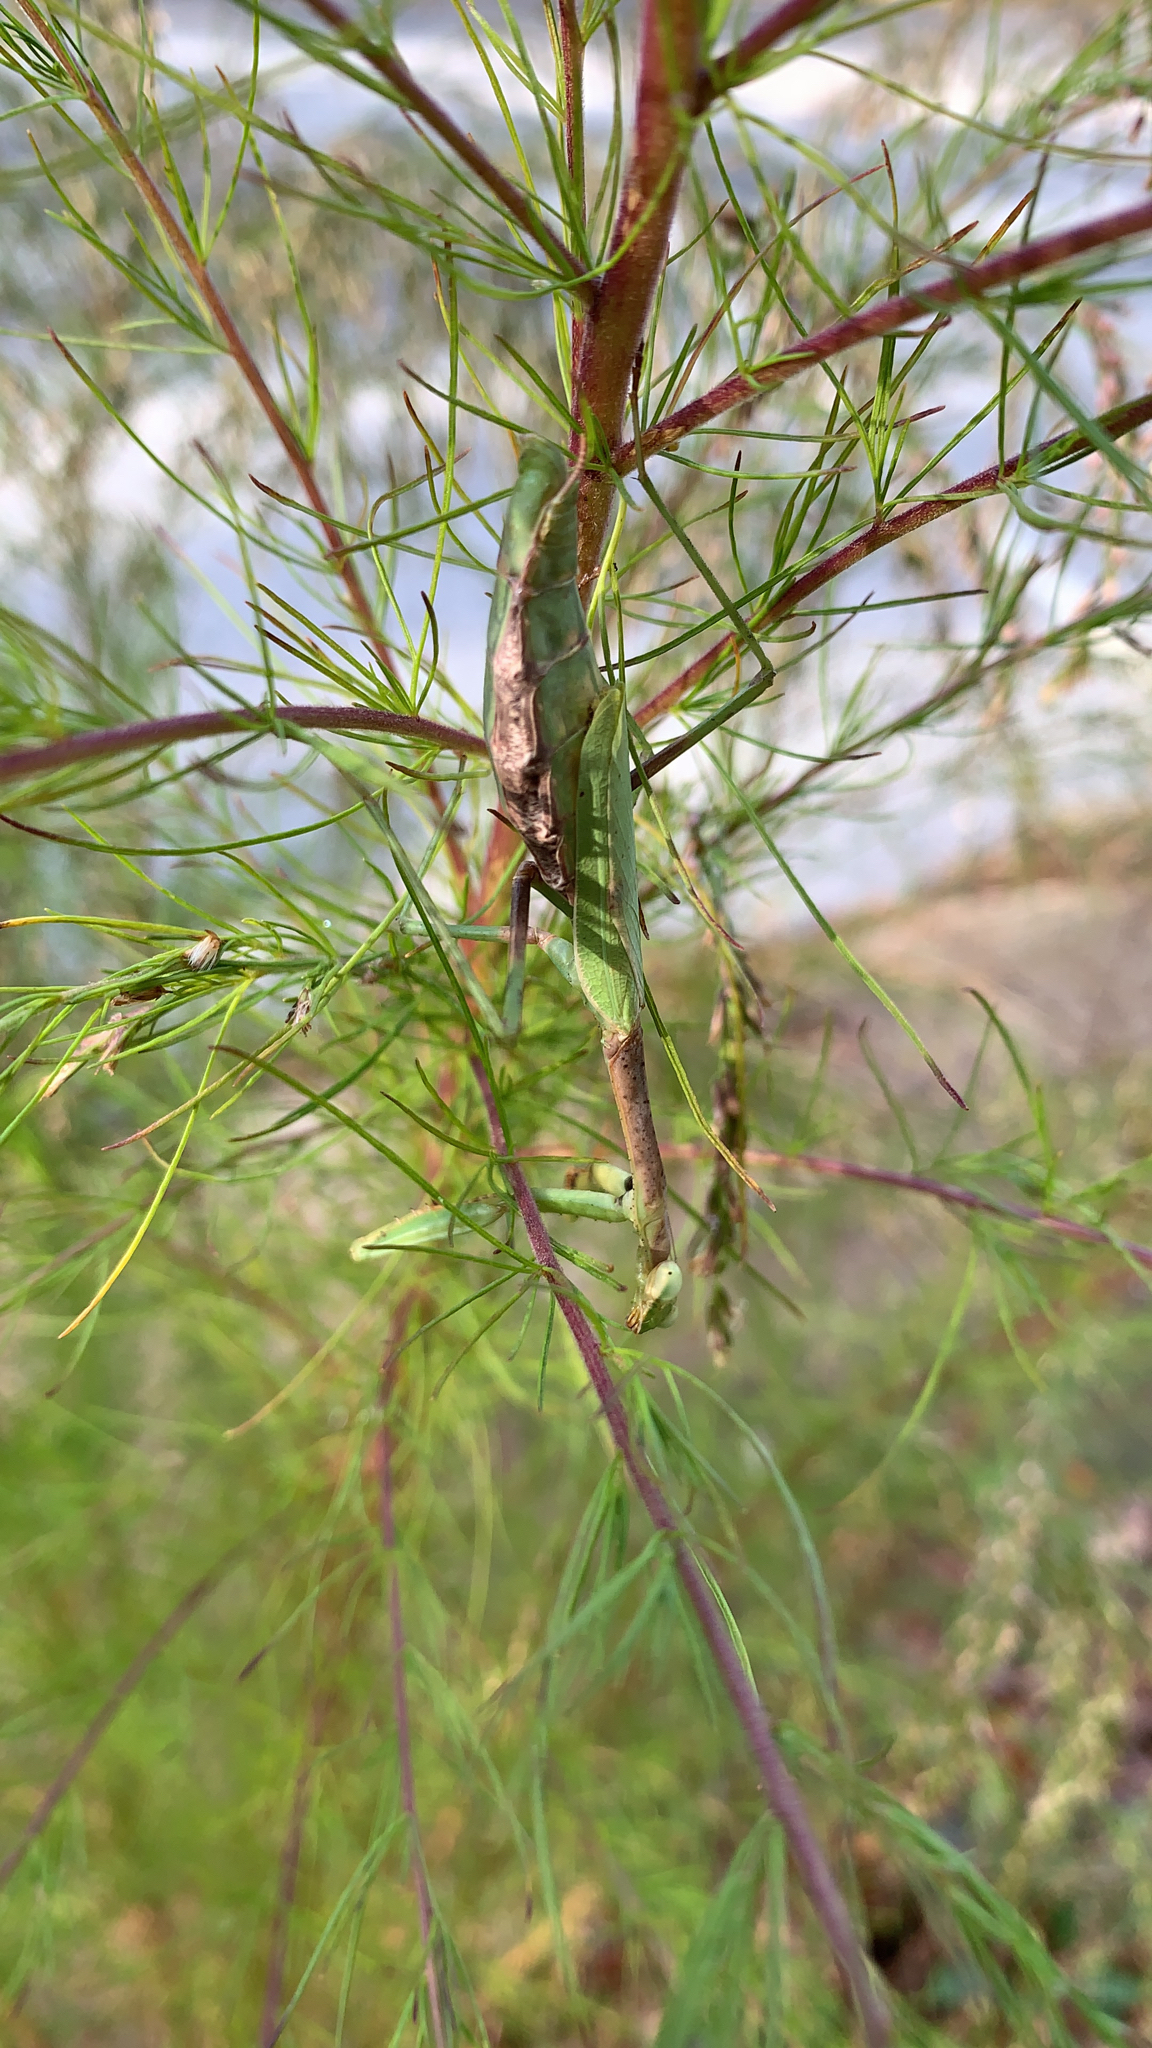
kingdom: Animalia
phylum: Arthropoda
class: Insecta
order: Mantodea
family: Mantidae
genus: Stagmomantis
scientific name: Stagmomantis carolina
